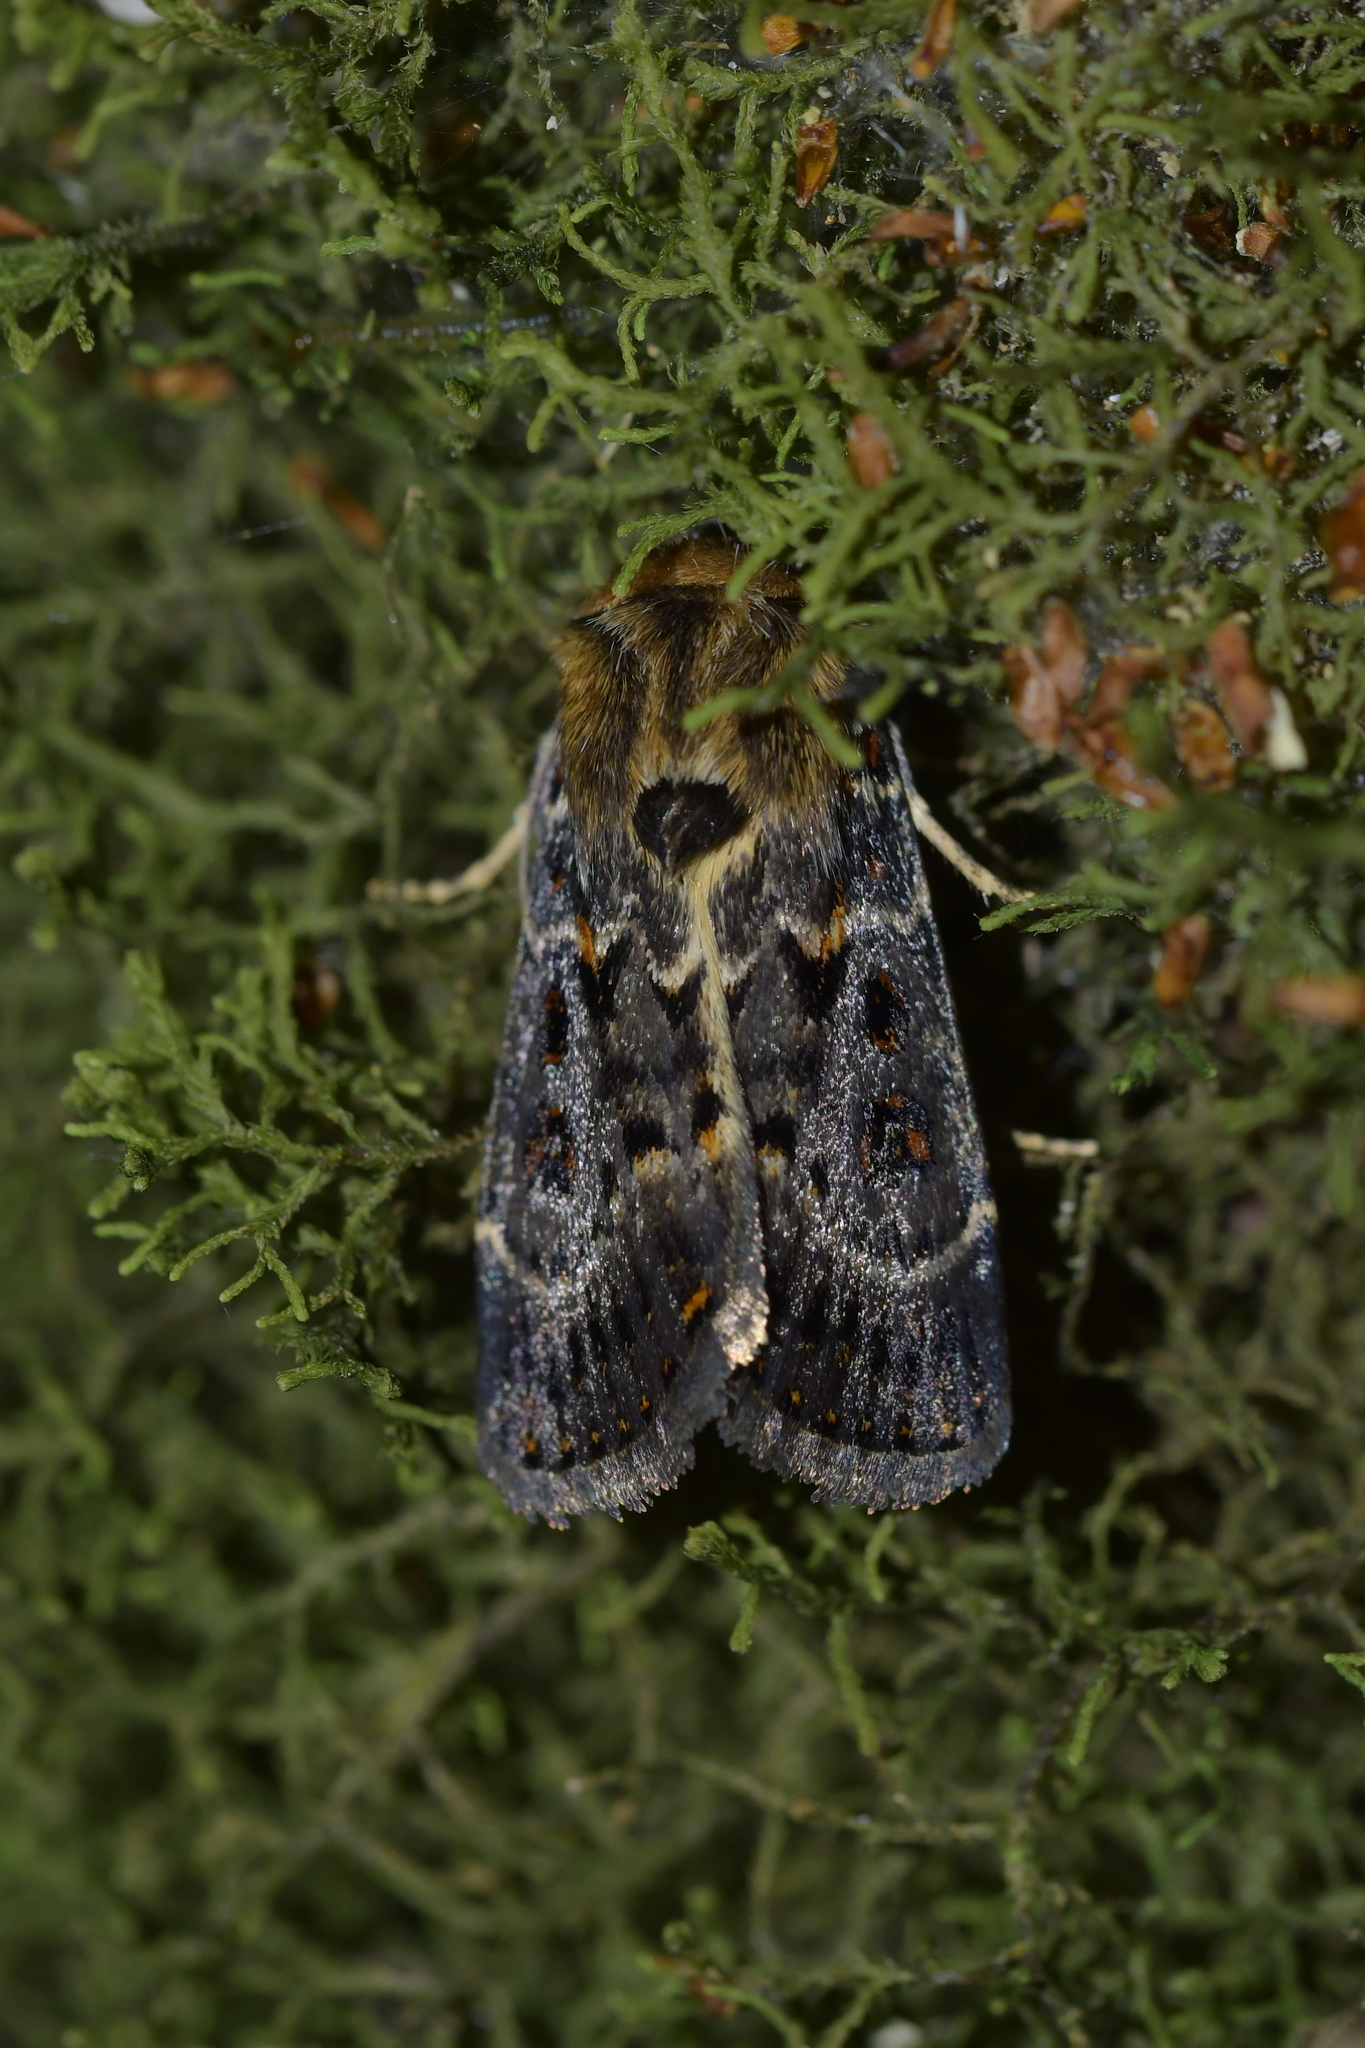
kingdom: Animalia
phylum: Arthropoda
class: Insecta
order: Lepidoptera
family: Noctuidae
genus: Proteuxoa
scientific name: Proteuxoa sanguinipuncta
